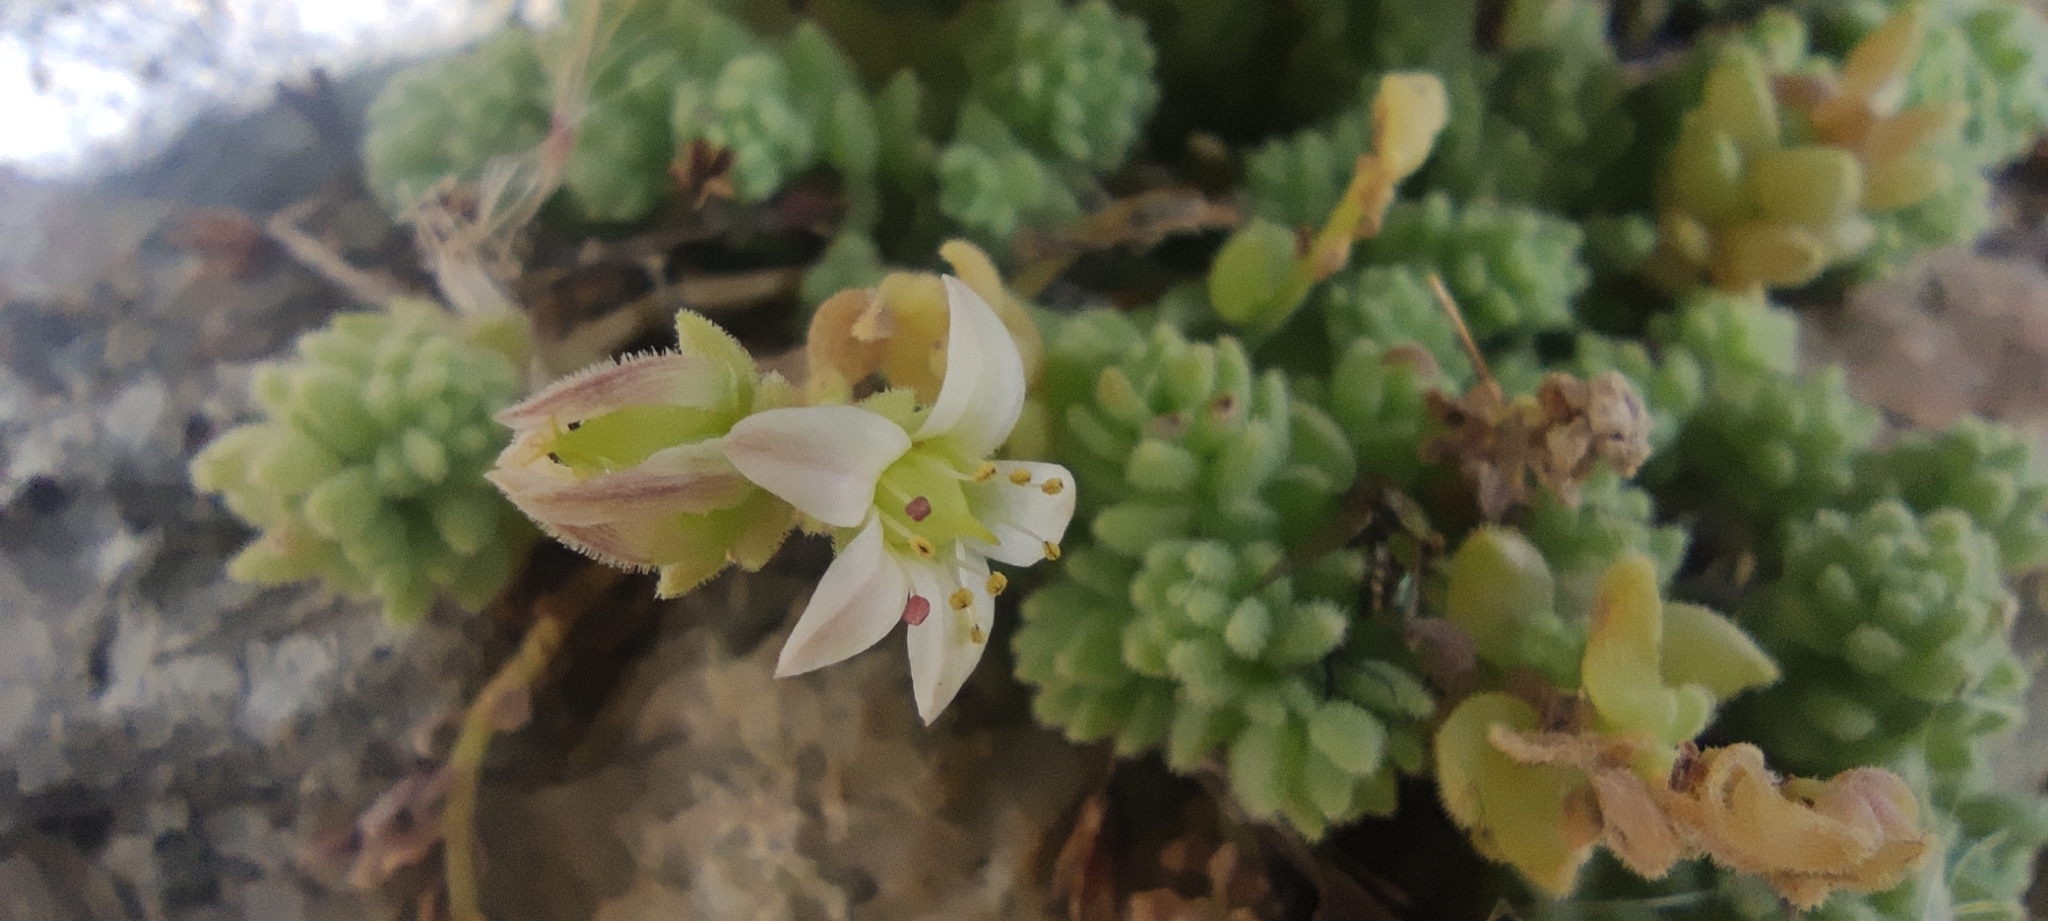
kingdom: Plantae
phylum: Tracheophyta
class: Magnoliopsida
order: Saxifragales
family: Crassulaceae
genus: Sedum
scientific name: Sedum dasyphyllum
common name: Thick-leaf stonecrop
